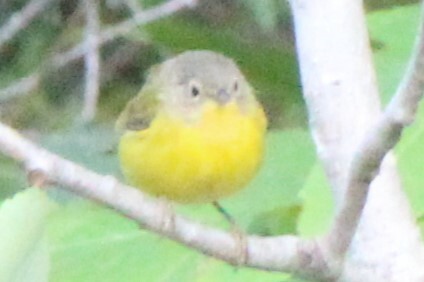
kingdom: Animalia
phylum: Chordata
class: Aves
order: Passeriformes
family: Parulidae
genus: Leiothlypis
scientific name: Leiothlypis ruficapilla
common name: Nashville warbler
